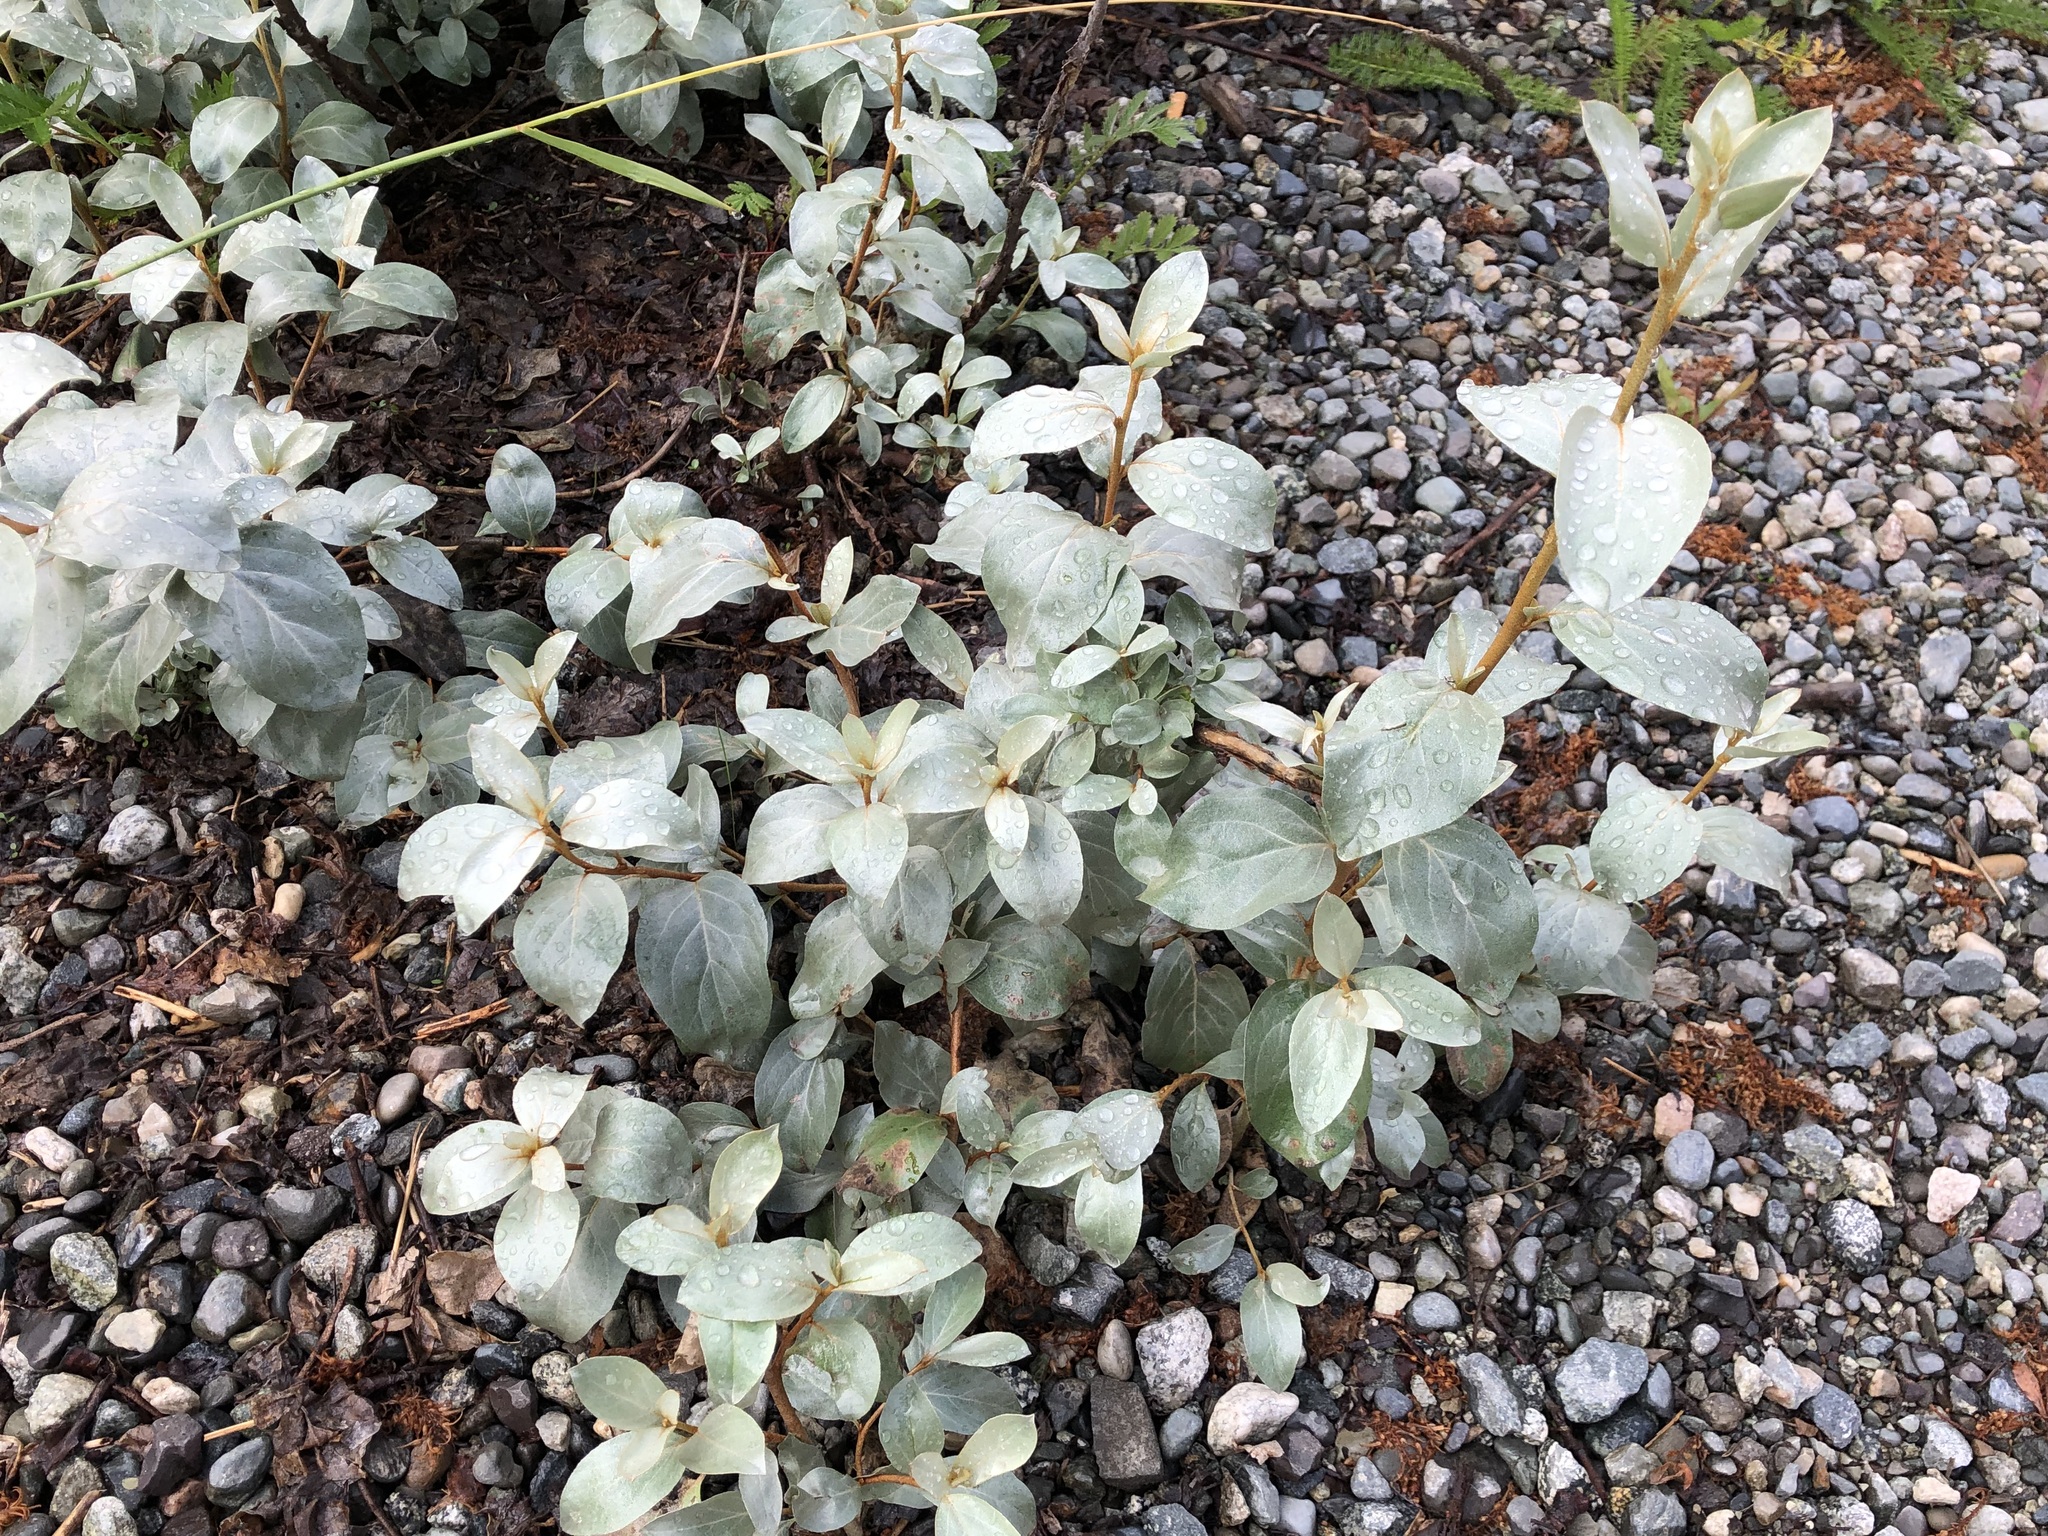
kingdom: Plantae
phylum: Tracheophyta
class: Magnoliopsida
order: Rosales
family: Elaeagnaceae
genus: Elaeagnus
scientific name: Elaeagnus commutata
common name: Silverberry
